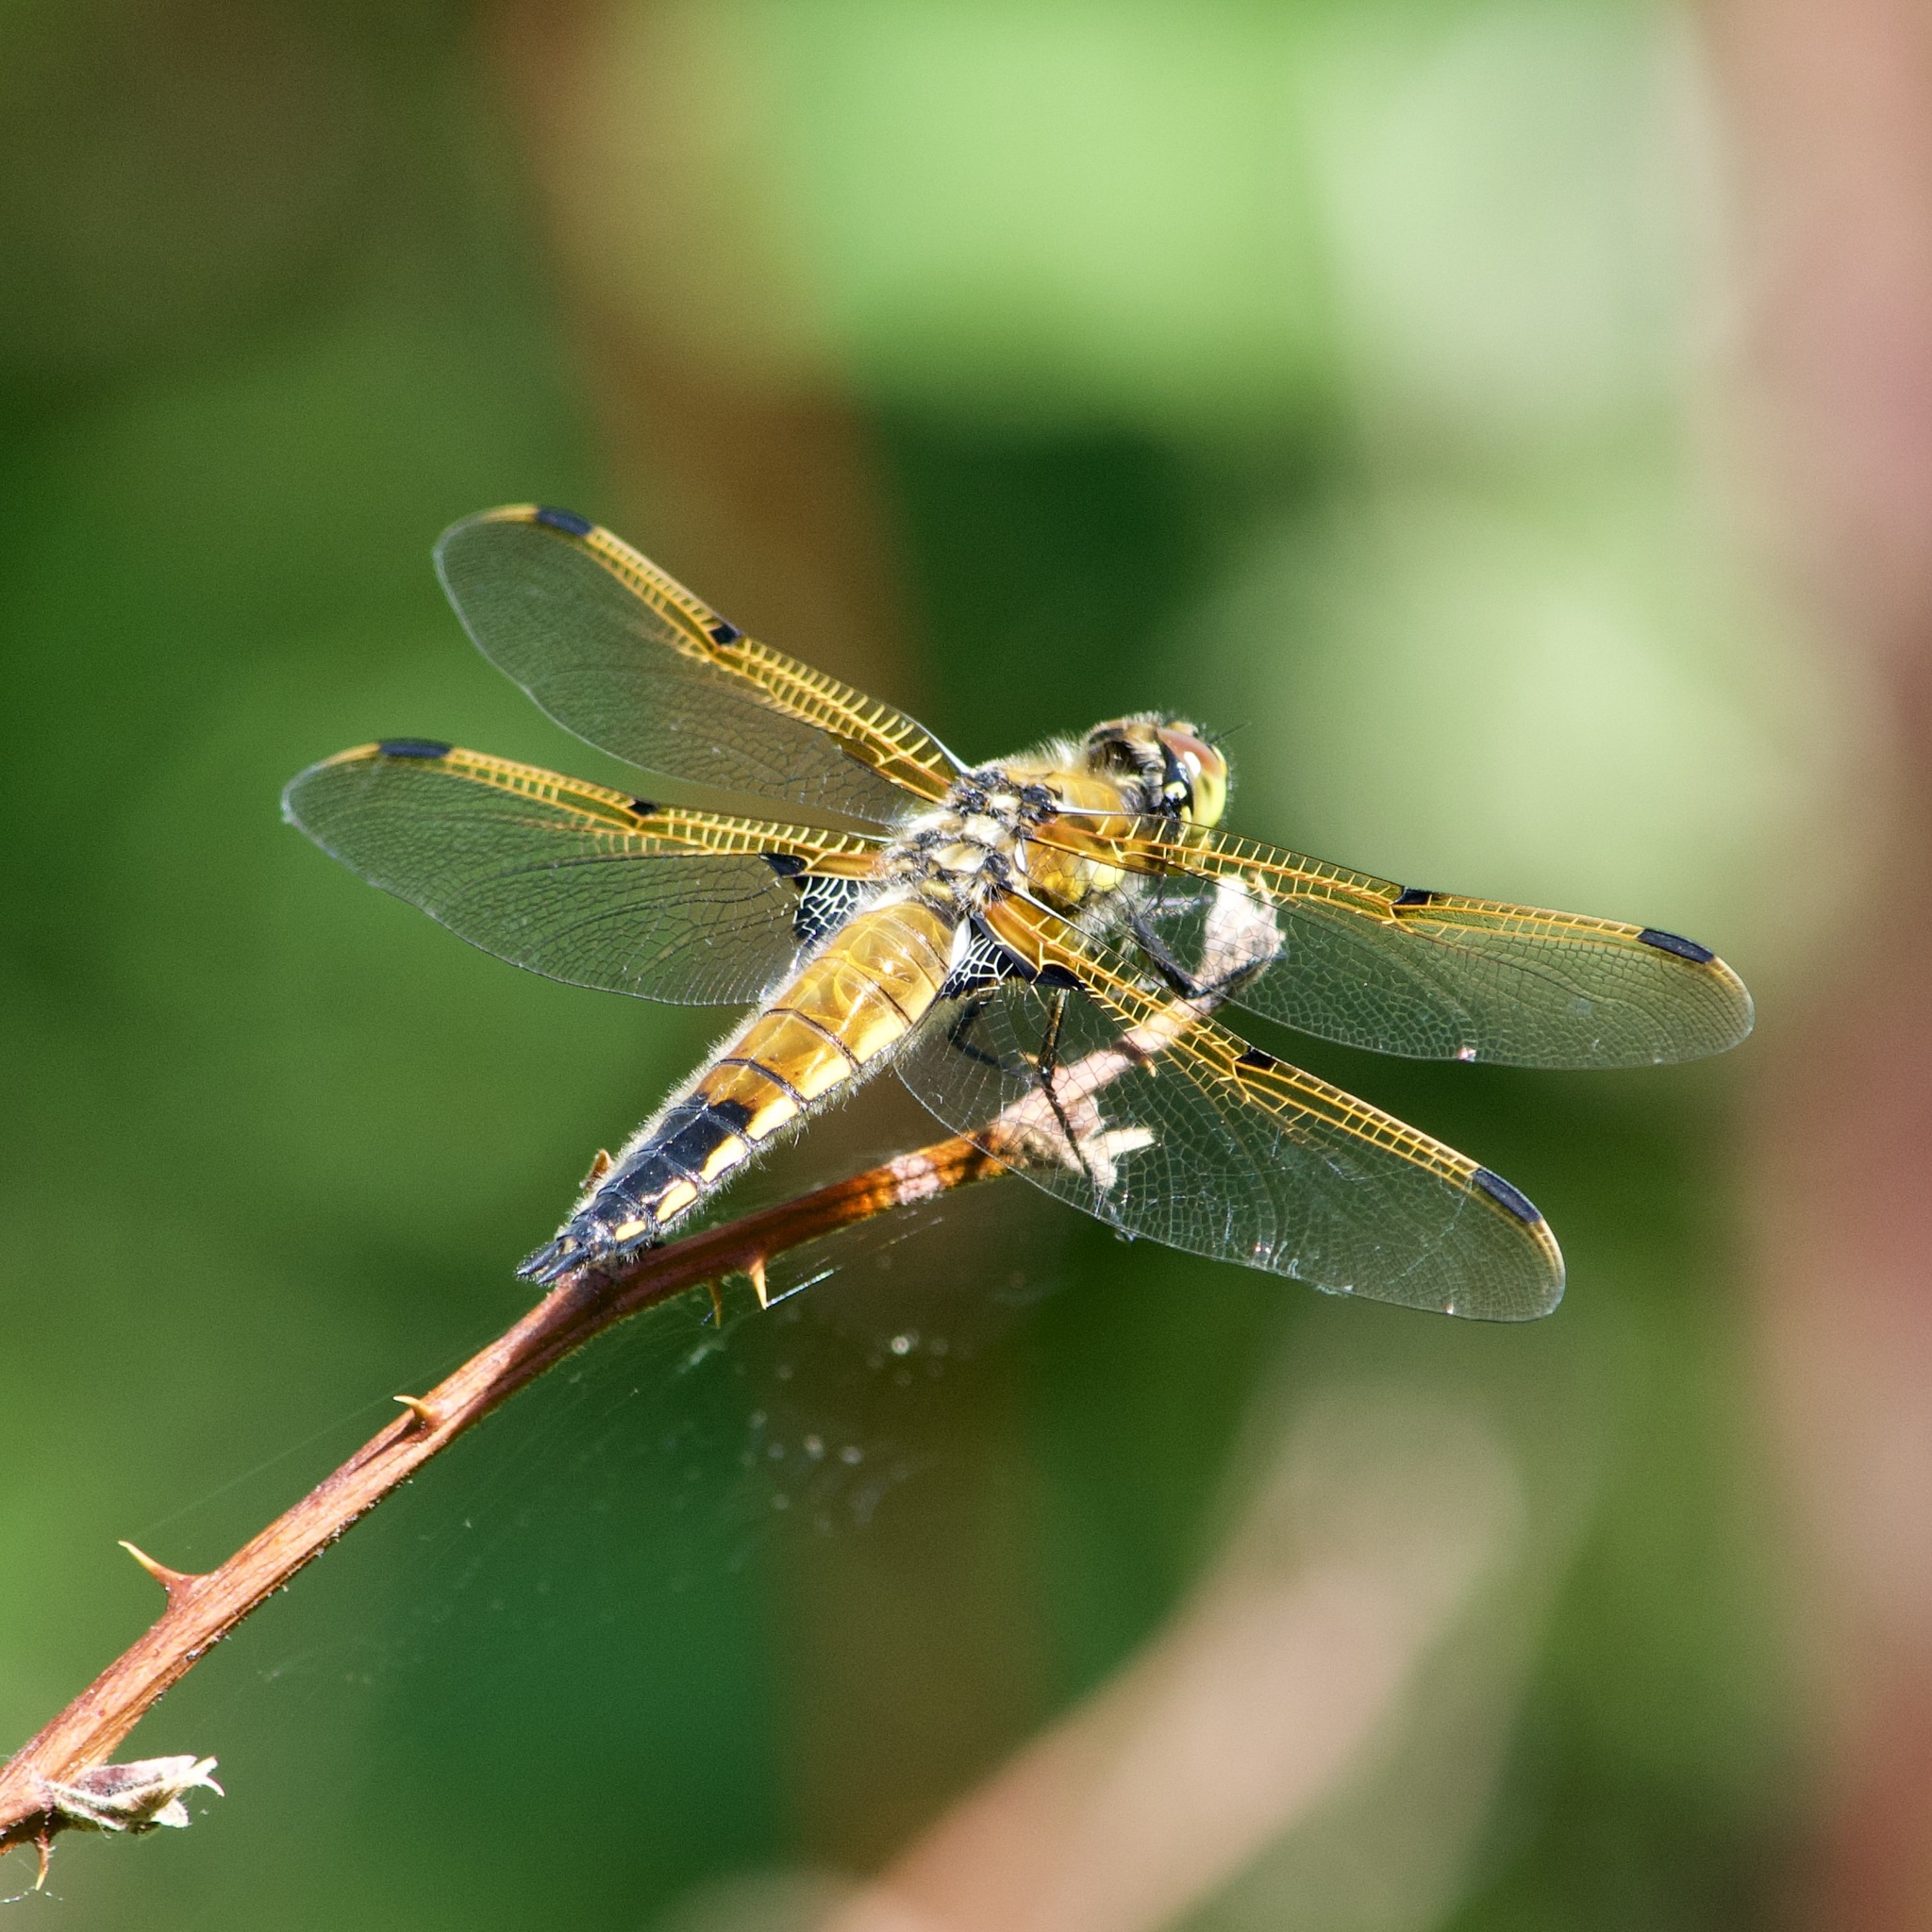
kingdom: Animalia
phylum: Arthropoda
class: Insecta
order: Odonata
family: Libellulidae
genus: Libellula
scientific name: Libellula quadrimaculata
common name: Four-spotted chaser
